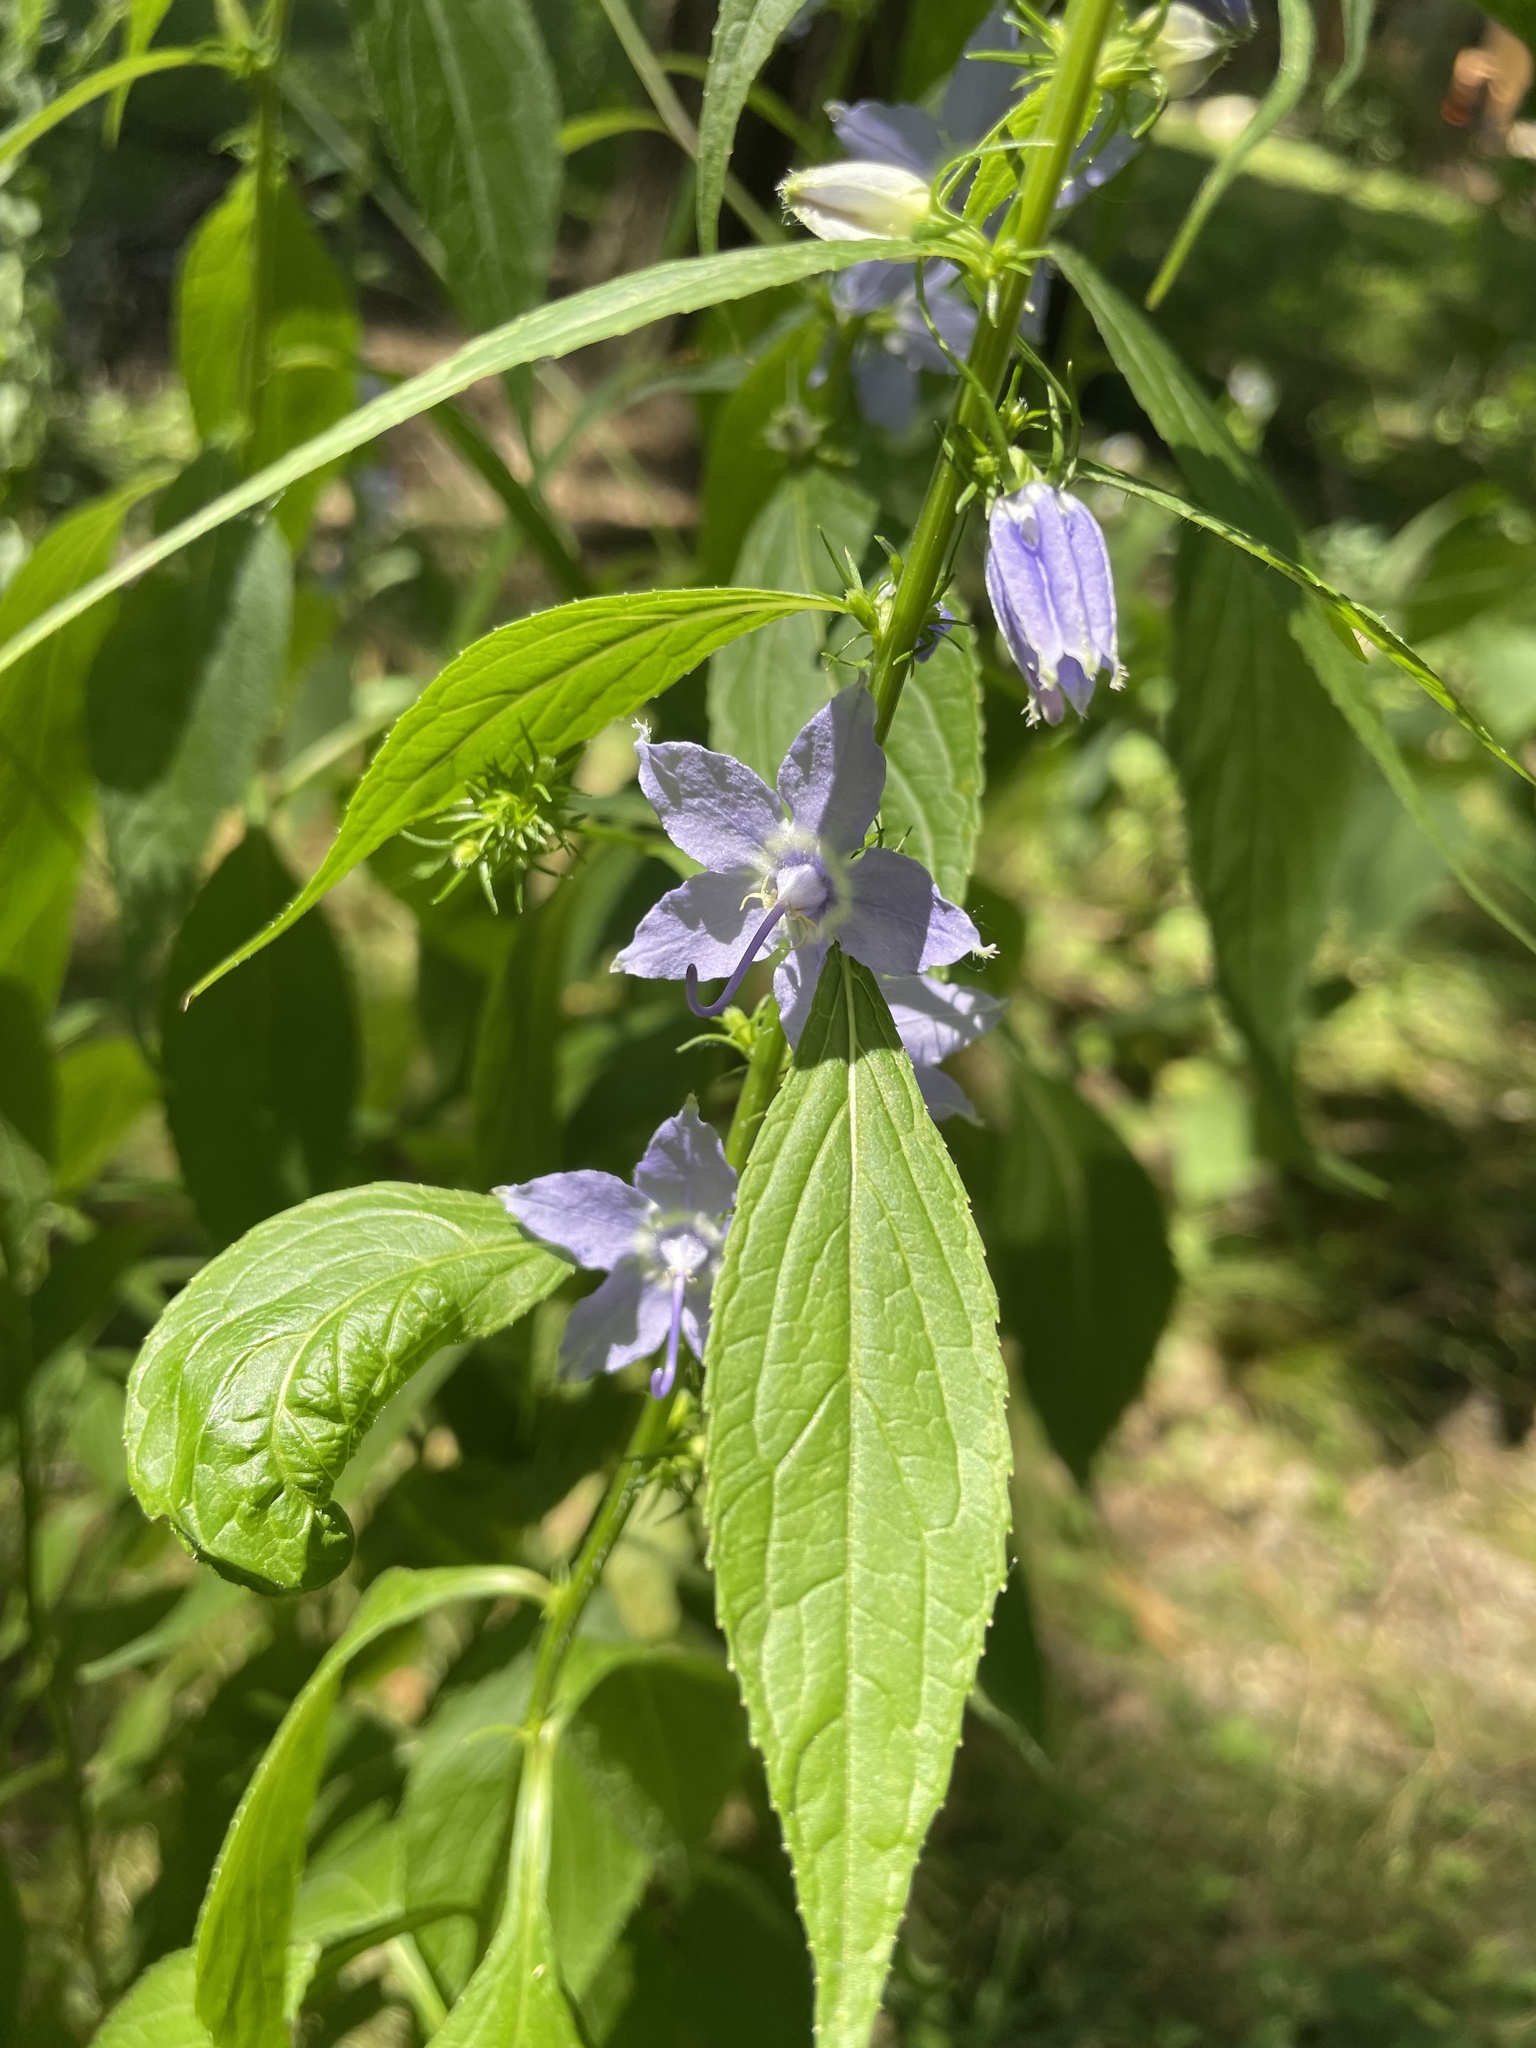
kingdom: Plantae
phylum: Tracheophyta
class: Magnoliopsida
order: Asterales
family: Campanulaceae
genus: Campanulastrum
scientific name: Campanulastrum americanum
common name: American bellflower
